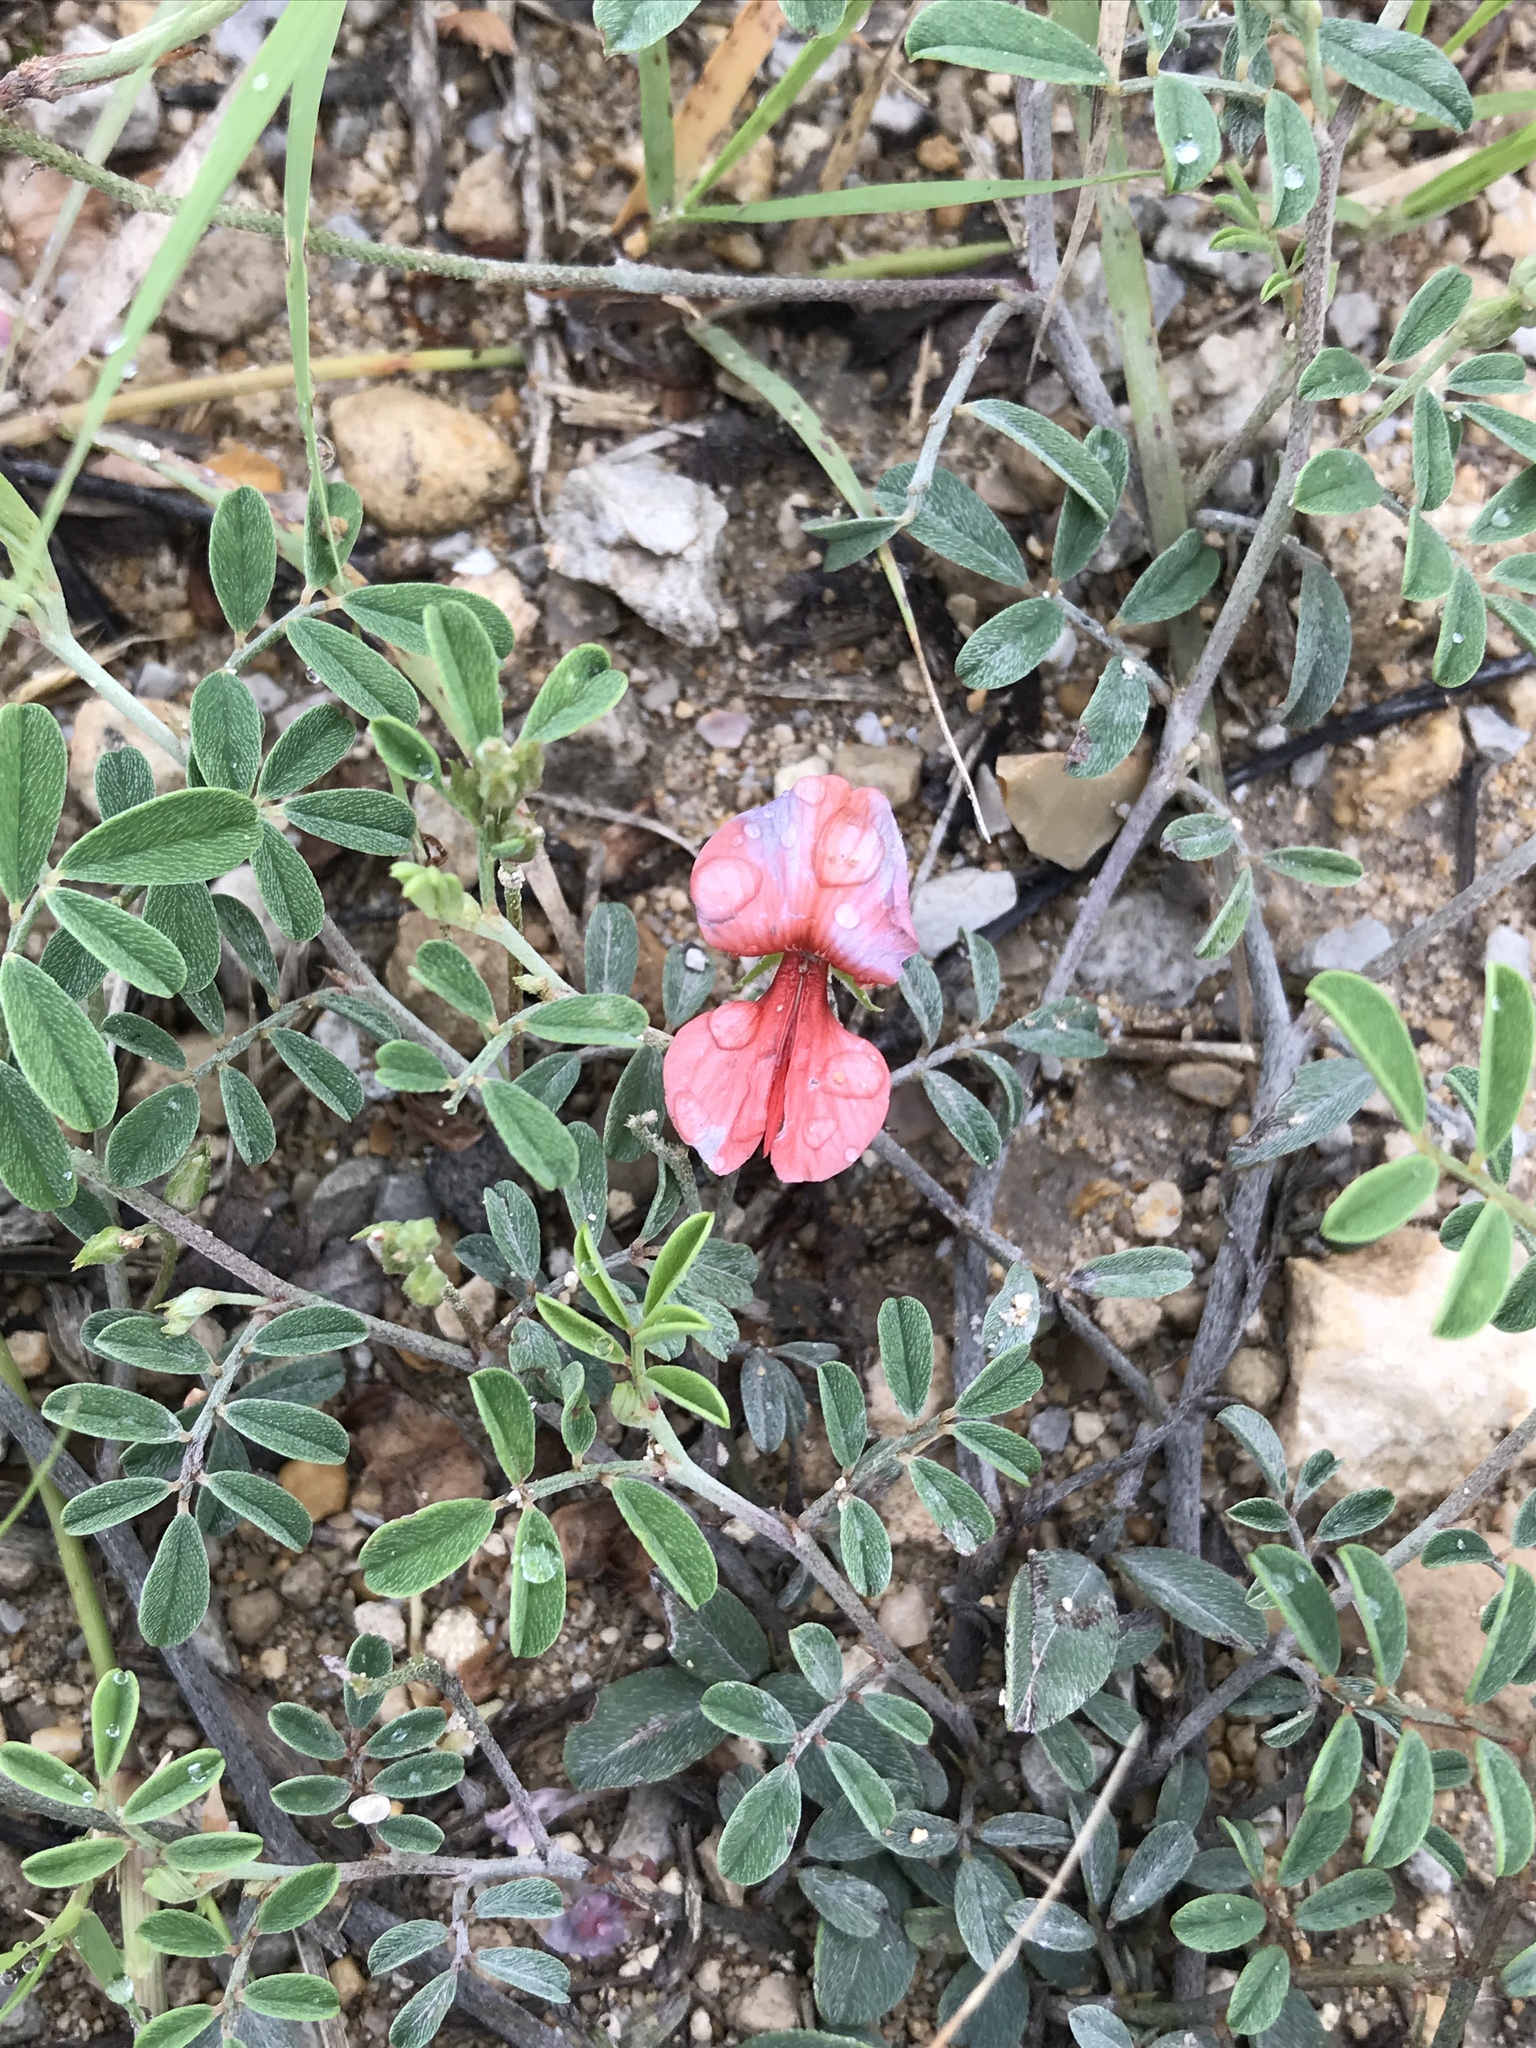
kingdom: Plantae
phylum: Tracheophyta
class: Magnoliopsida
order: Fabales
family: Fabaceae
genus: Indigofera
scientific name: Indigofera miniata
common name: Coast indigo
